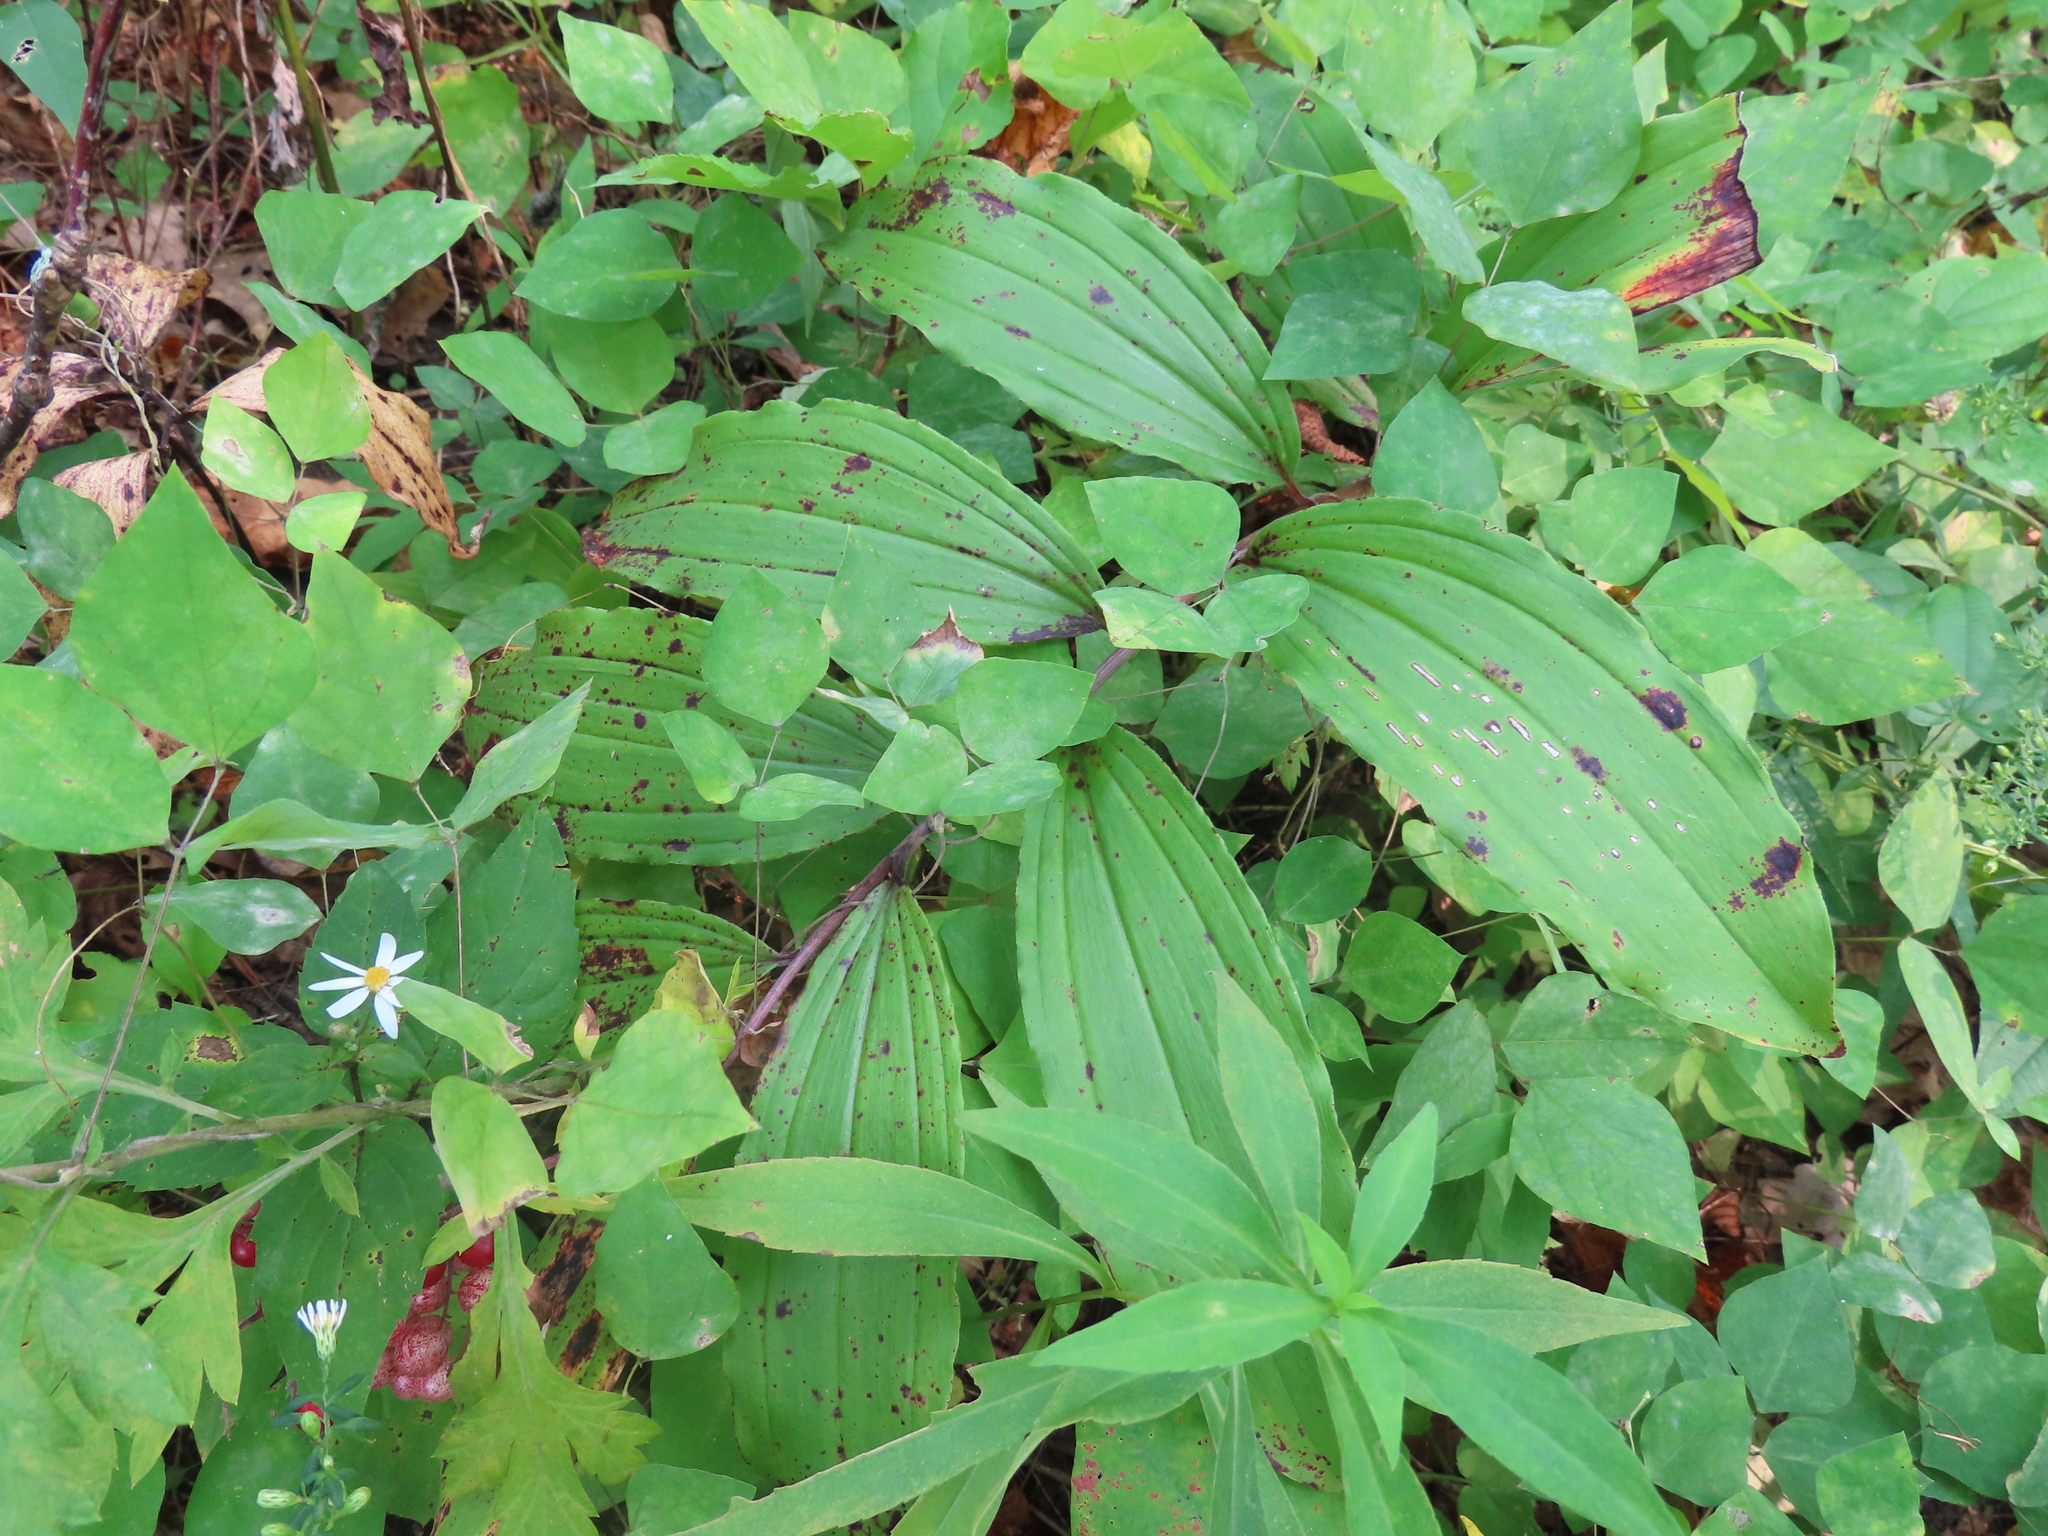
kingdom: Plantae
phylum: Tracheophyta
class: Liliopsida
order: Asparagales
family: Asparagaceae
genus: Maianthemum
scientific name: Maianthemum racemosum
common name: False spikenard
